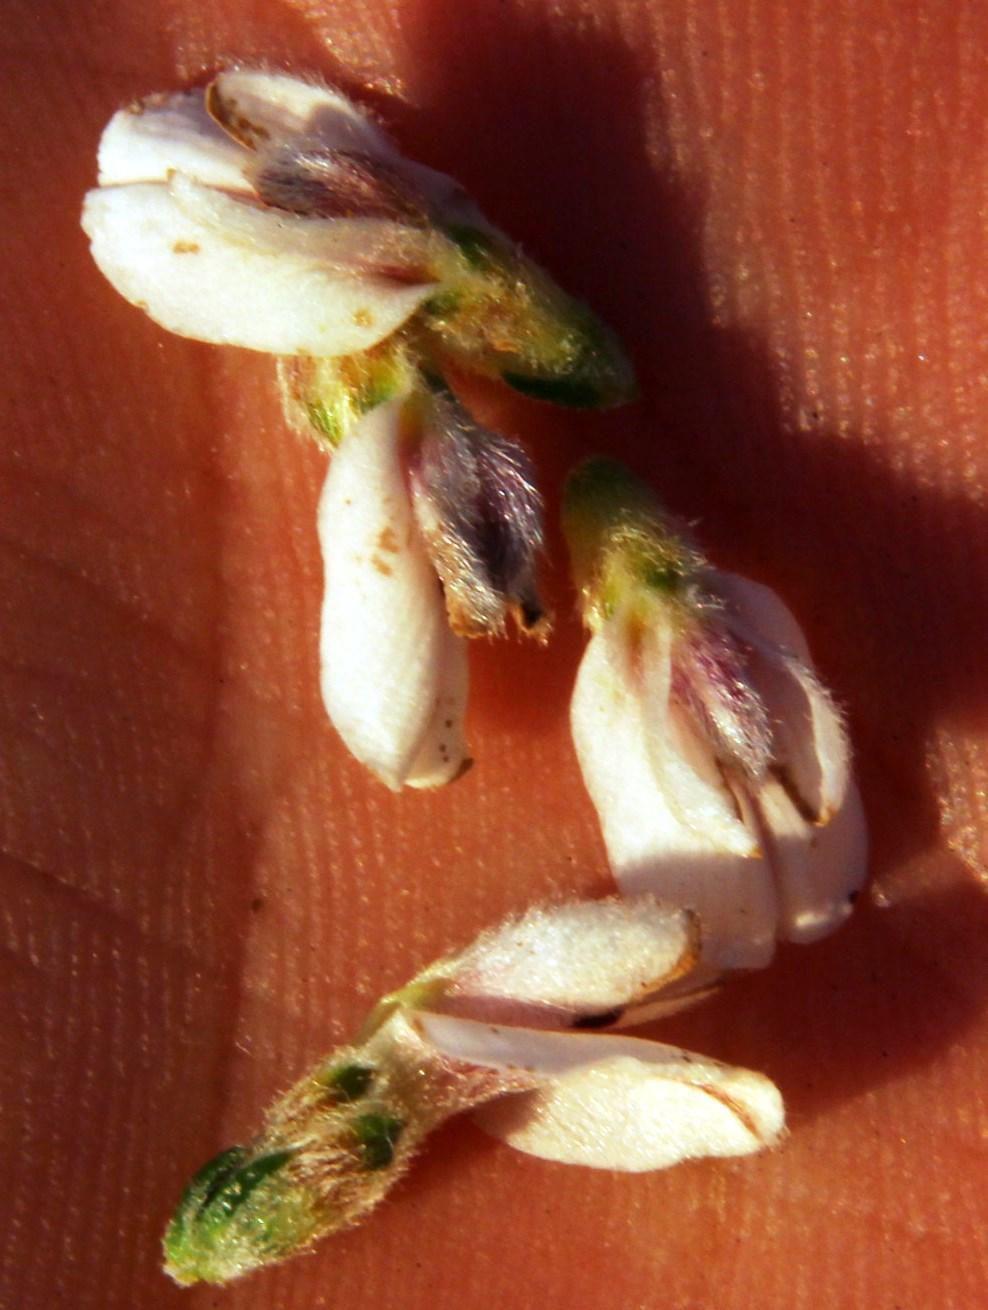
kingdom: Plantae
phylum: Tracheophyta
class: Magnoliopsida
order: Fabales
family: Fabaceae
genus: Aspalathus
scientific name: Aspalathus nigra
